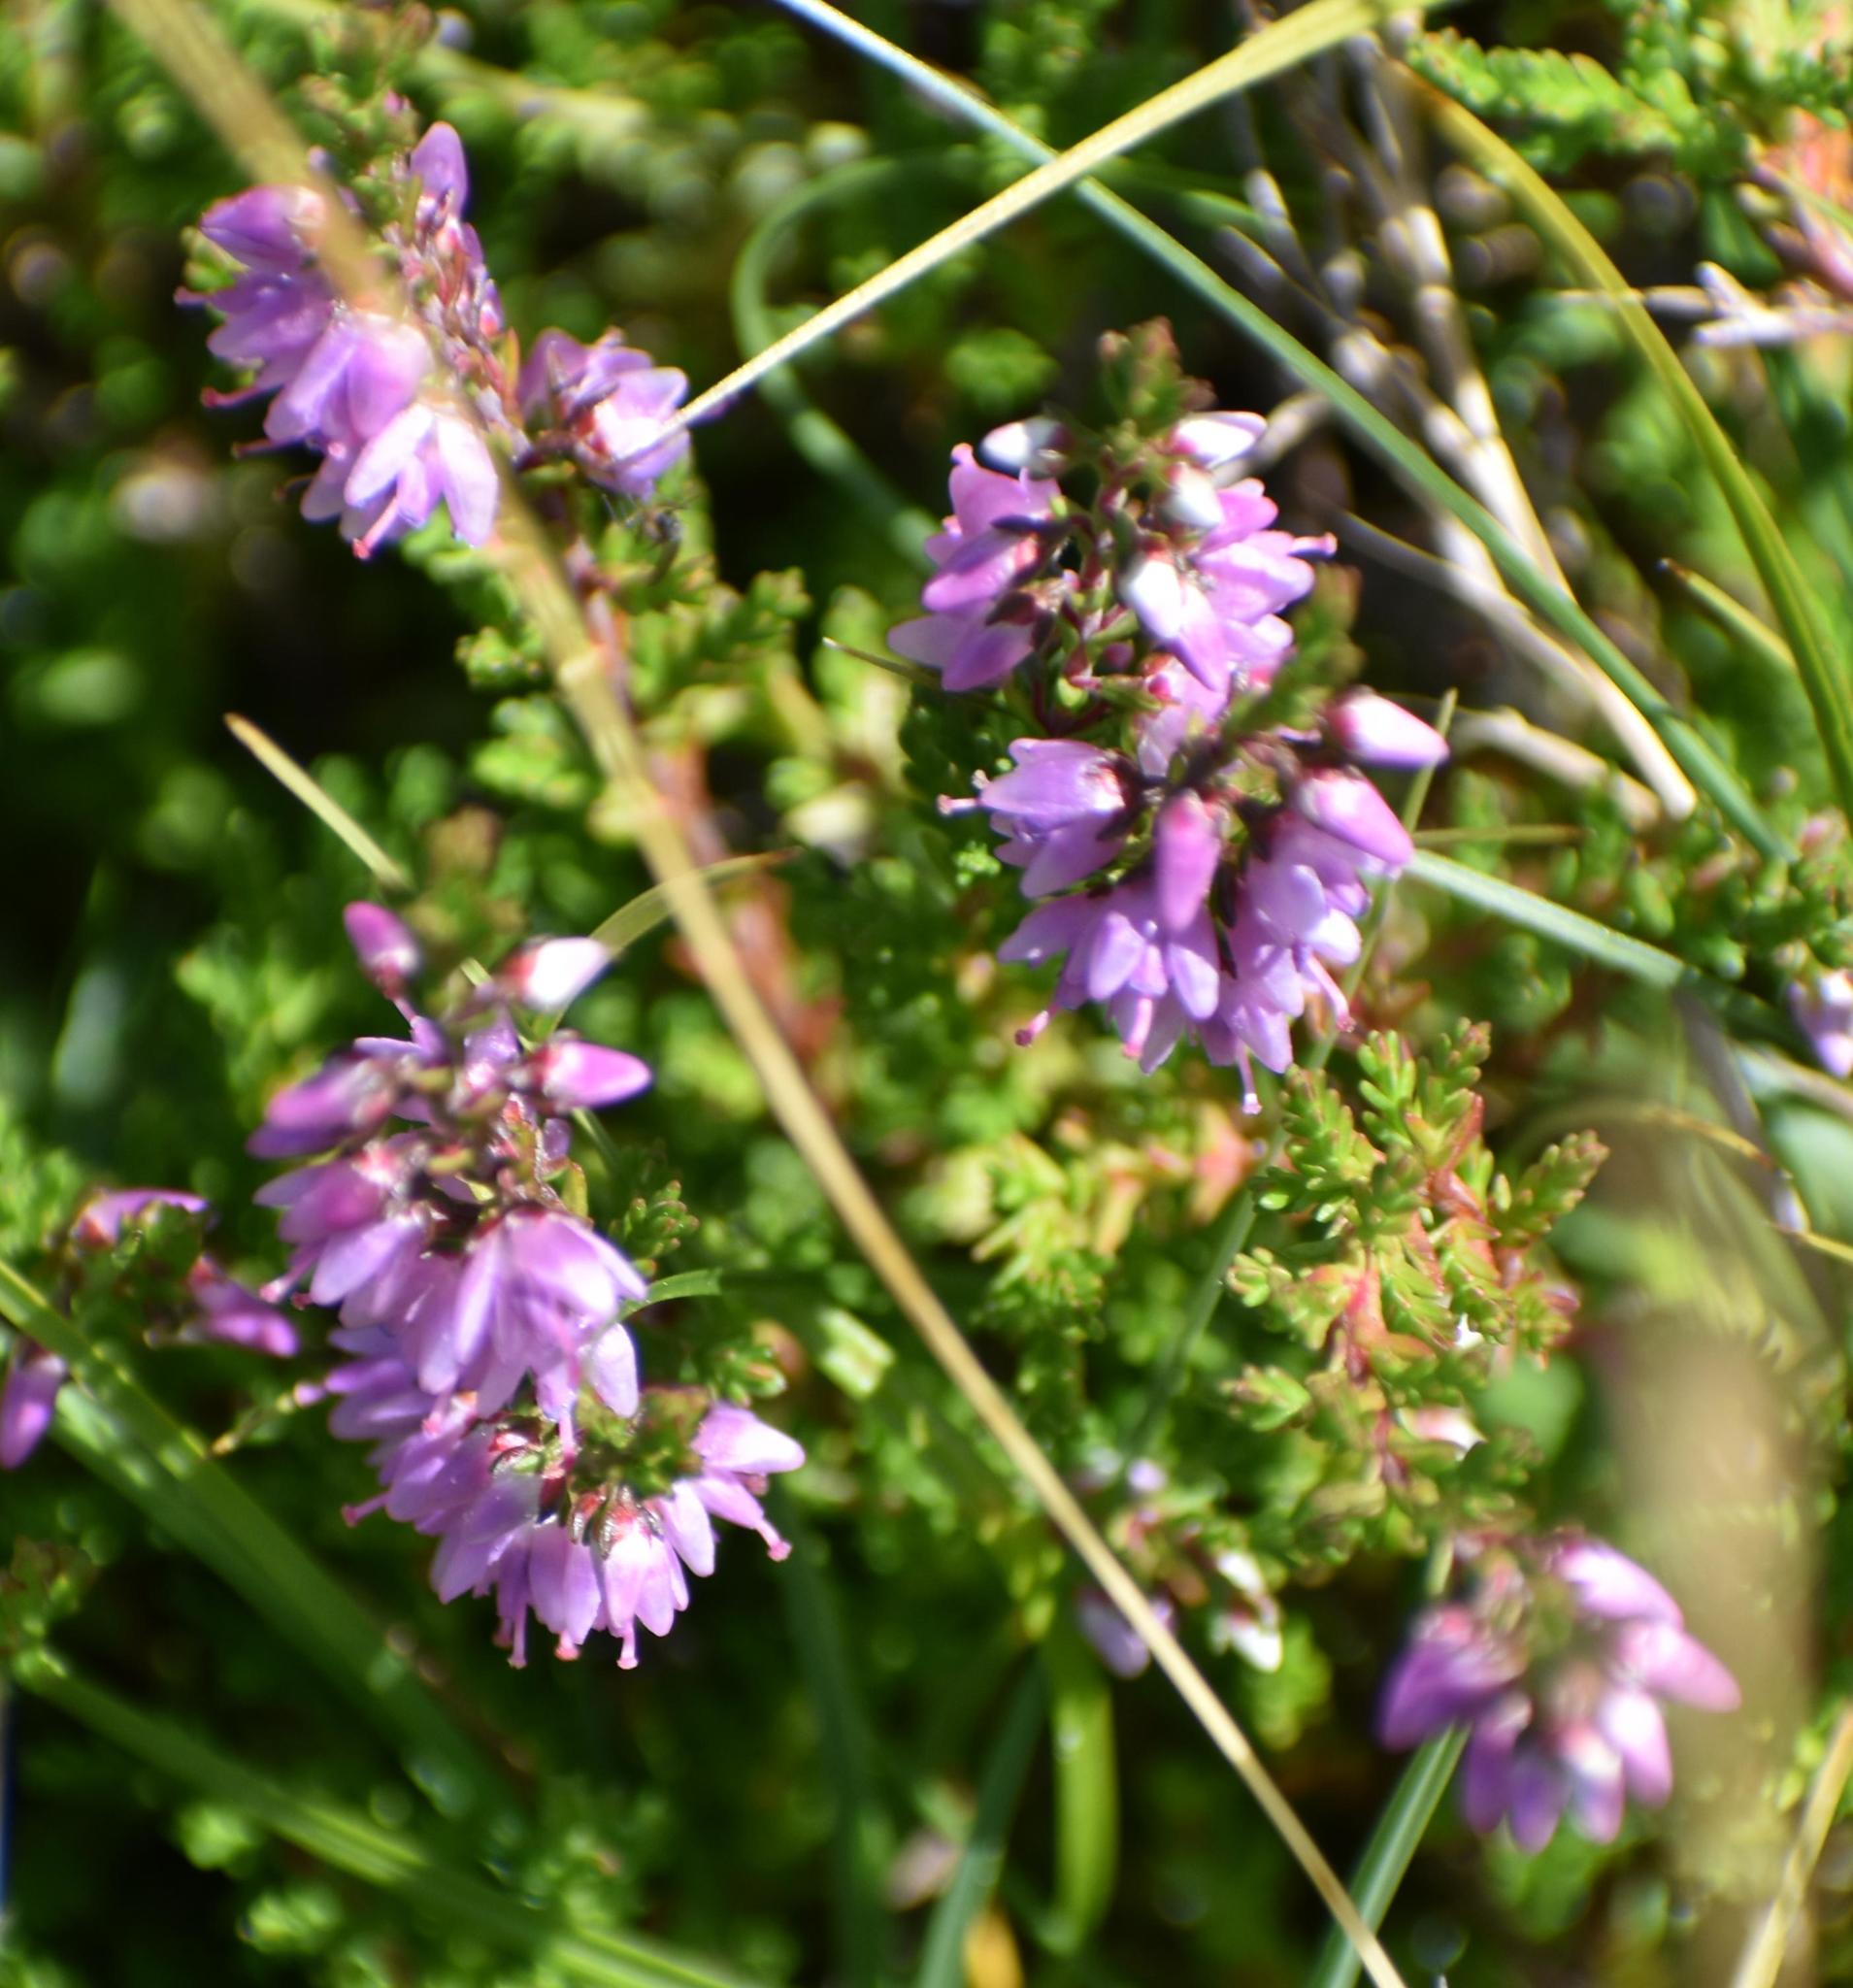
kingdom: Plantae
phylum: Tracheophyta
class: Magnoliopsida
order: Ericales
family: Ericaceae
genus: Calluna
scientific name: Calluna vulgaris
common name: Heather
